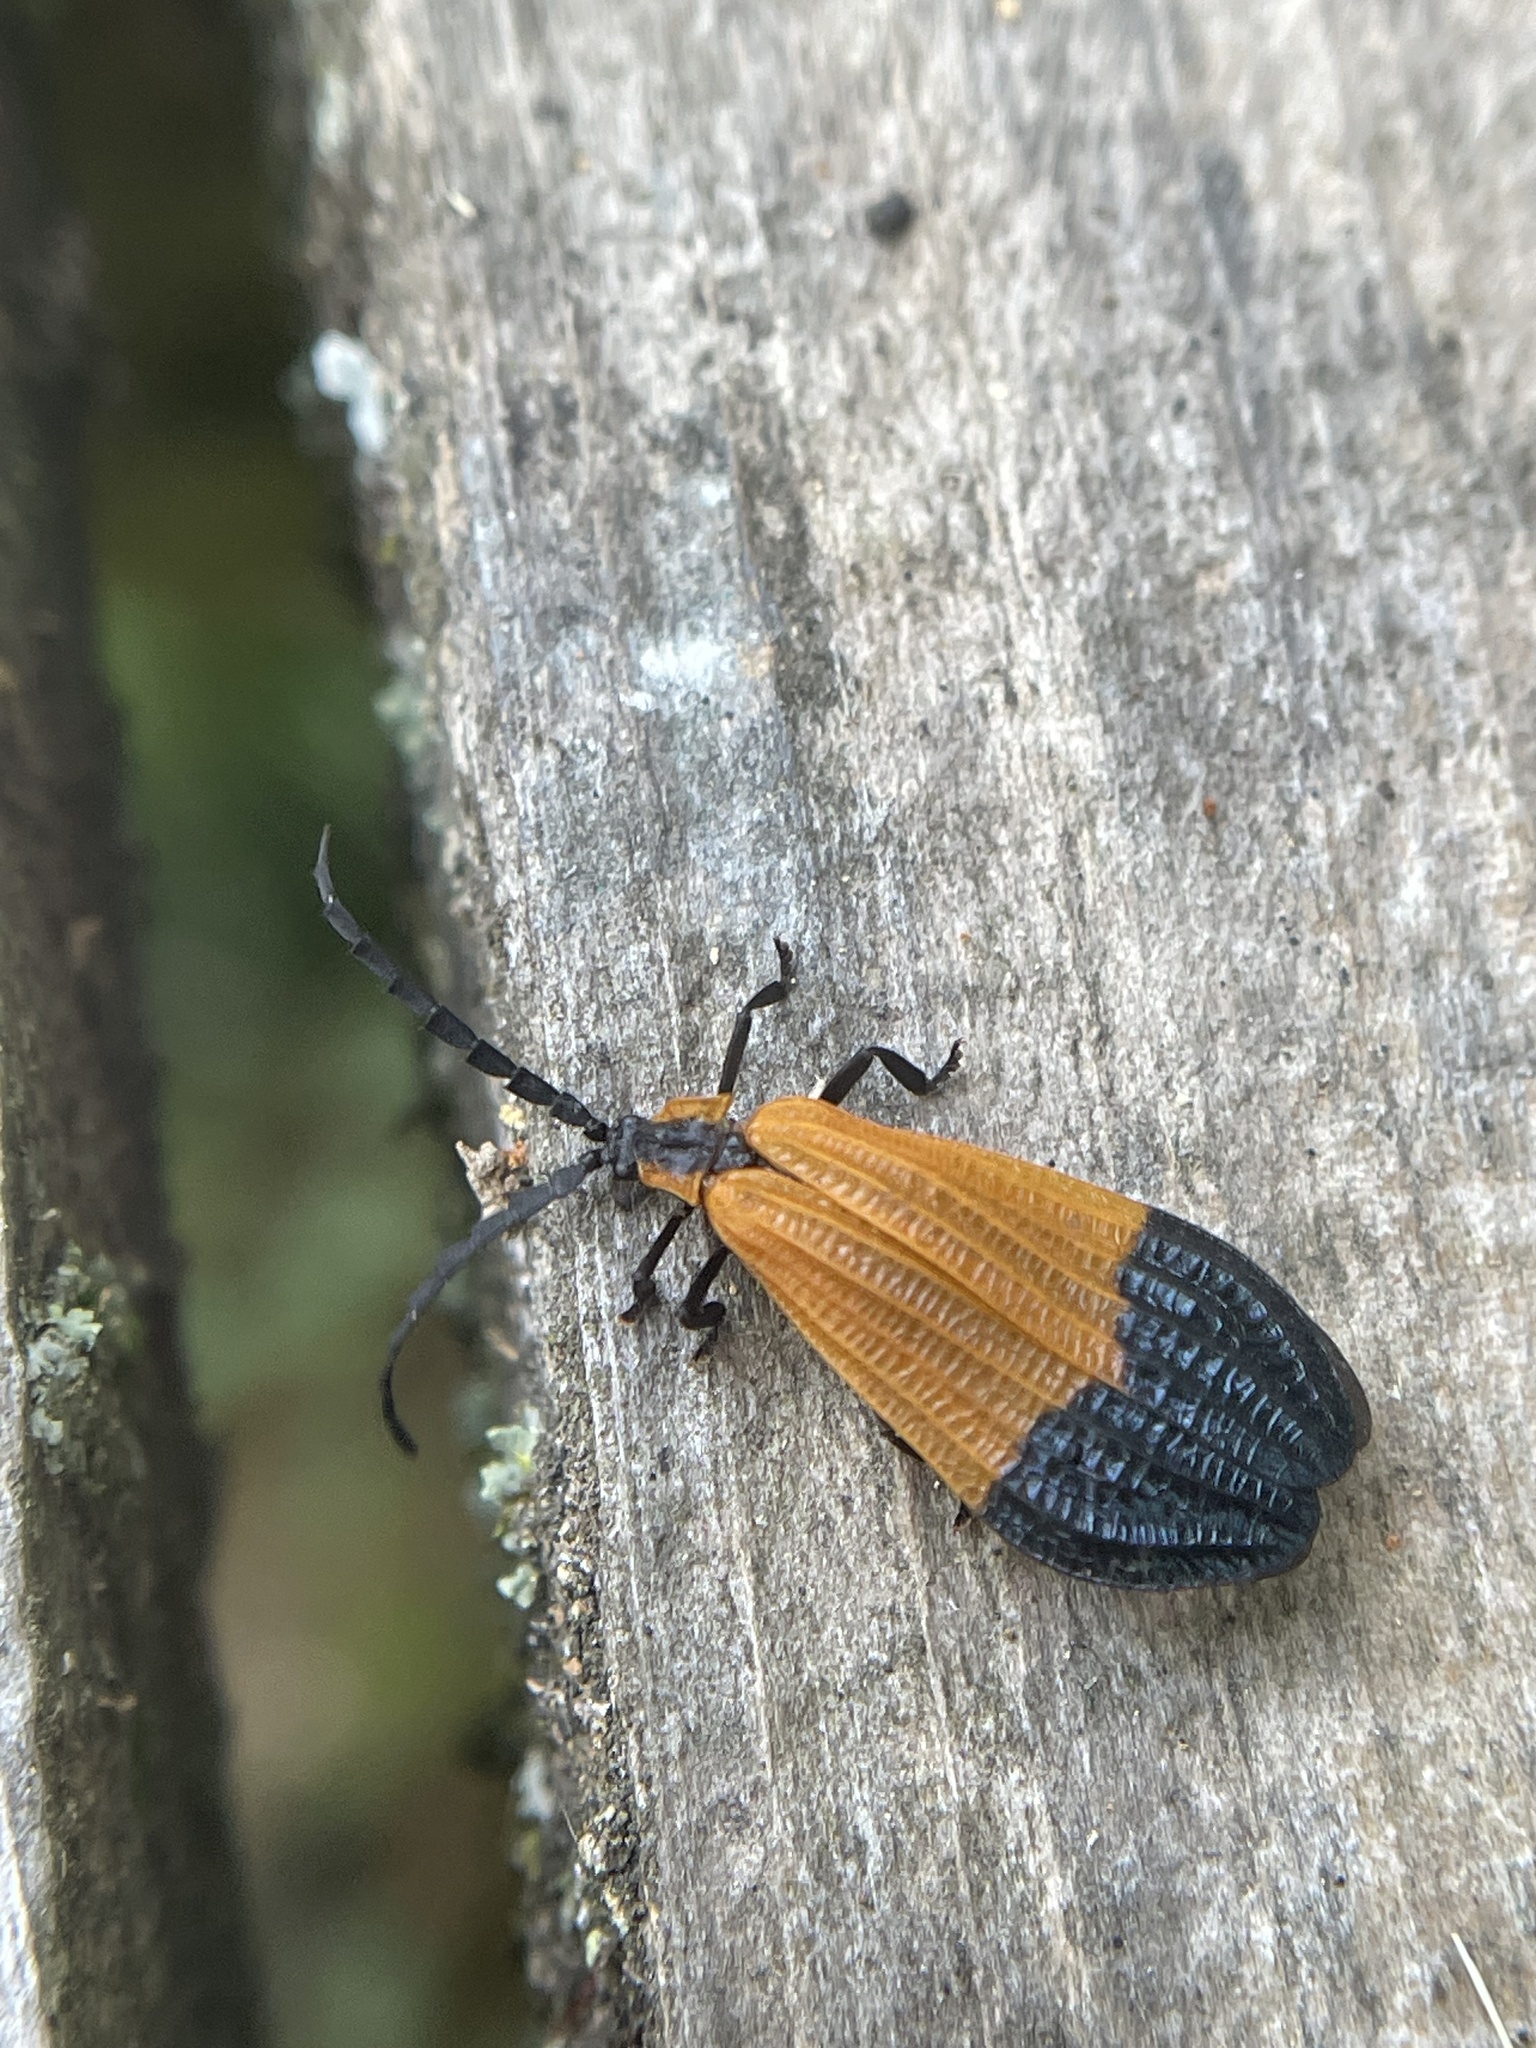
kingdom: Animalia
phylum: Arthropoda
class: Insecta
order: Coleoptera
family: Lycidae
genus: Calopteron
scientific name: Calopteron terminale
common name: End band net-winged beetle
